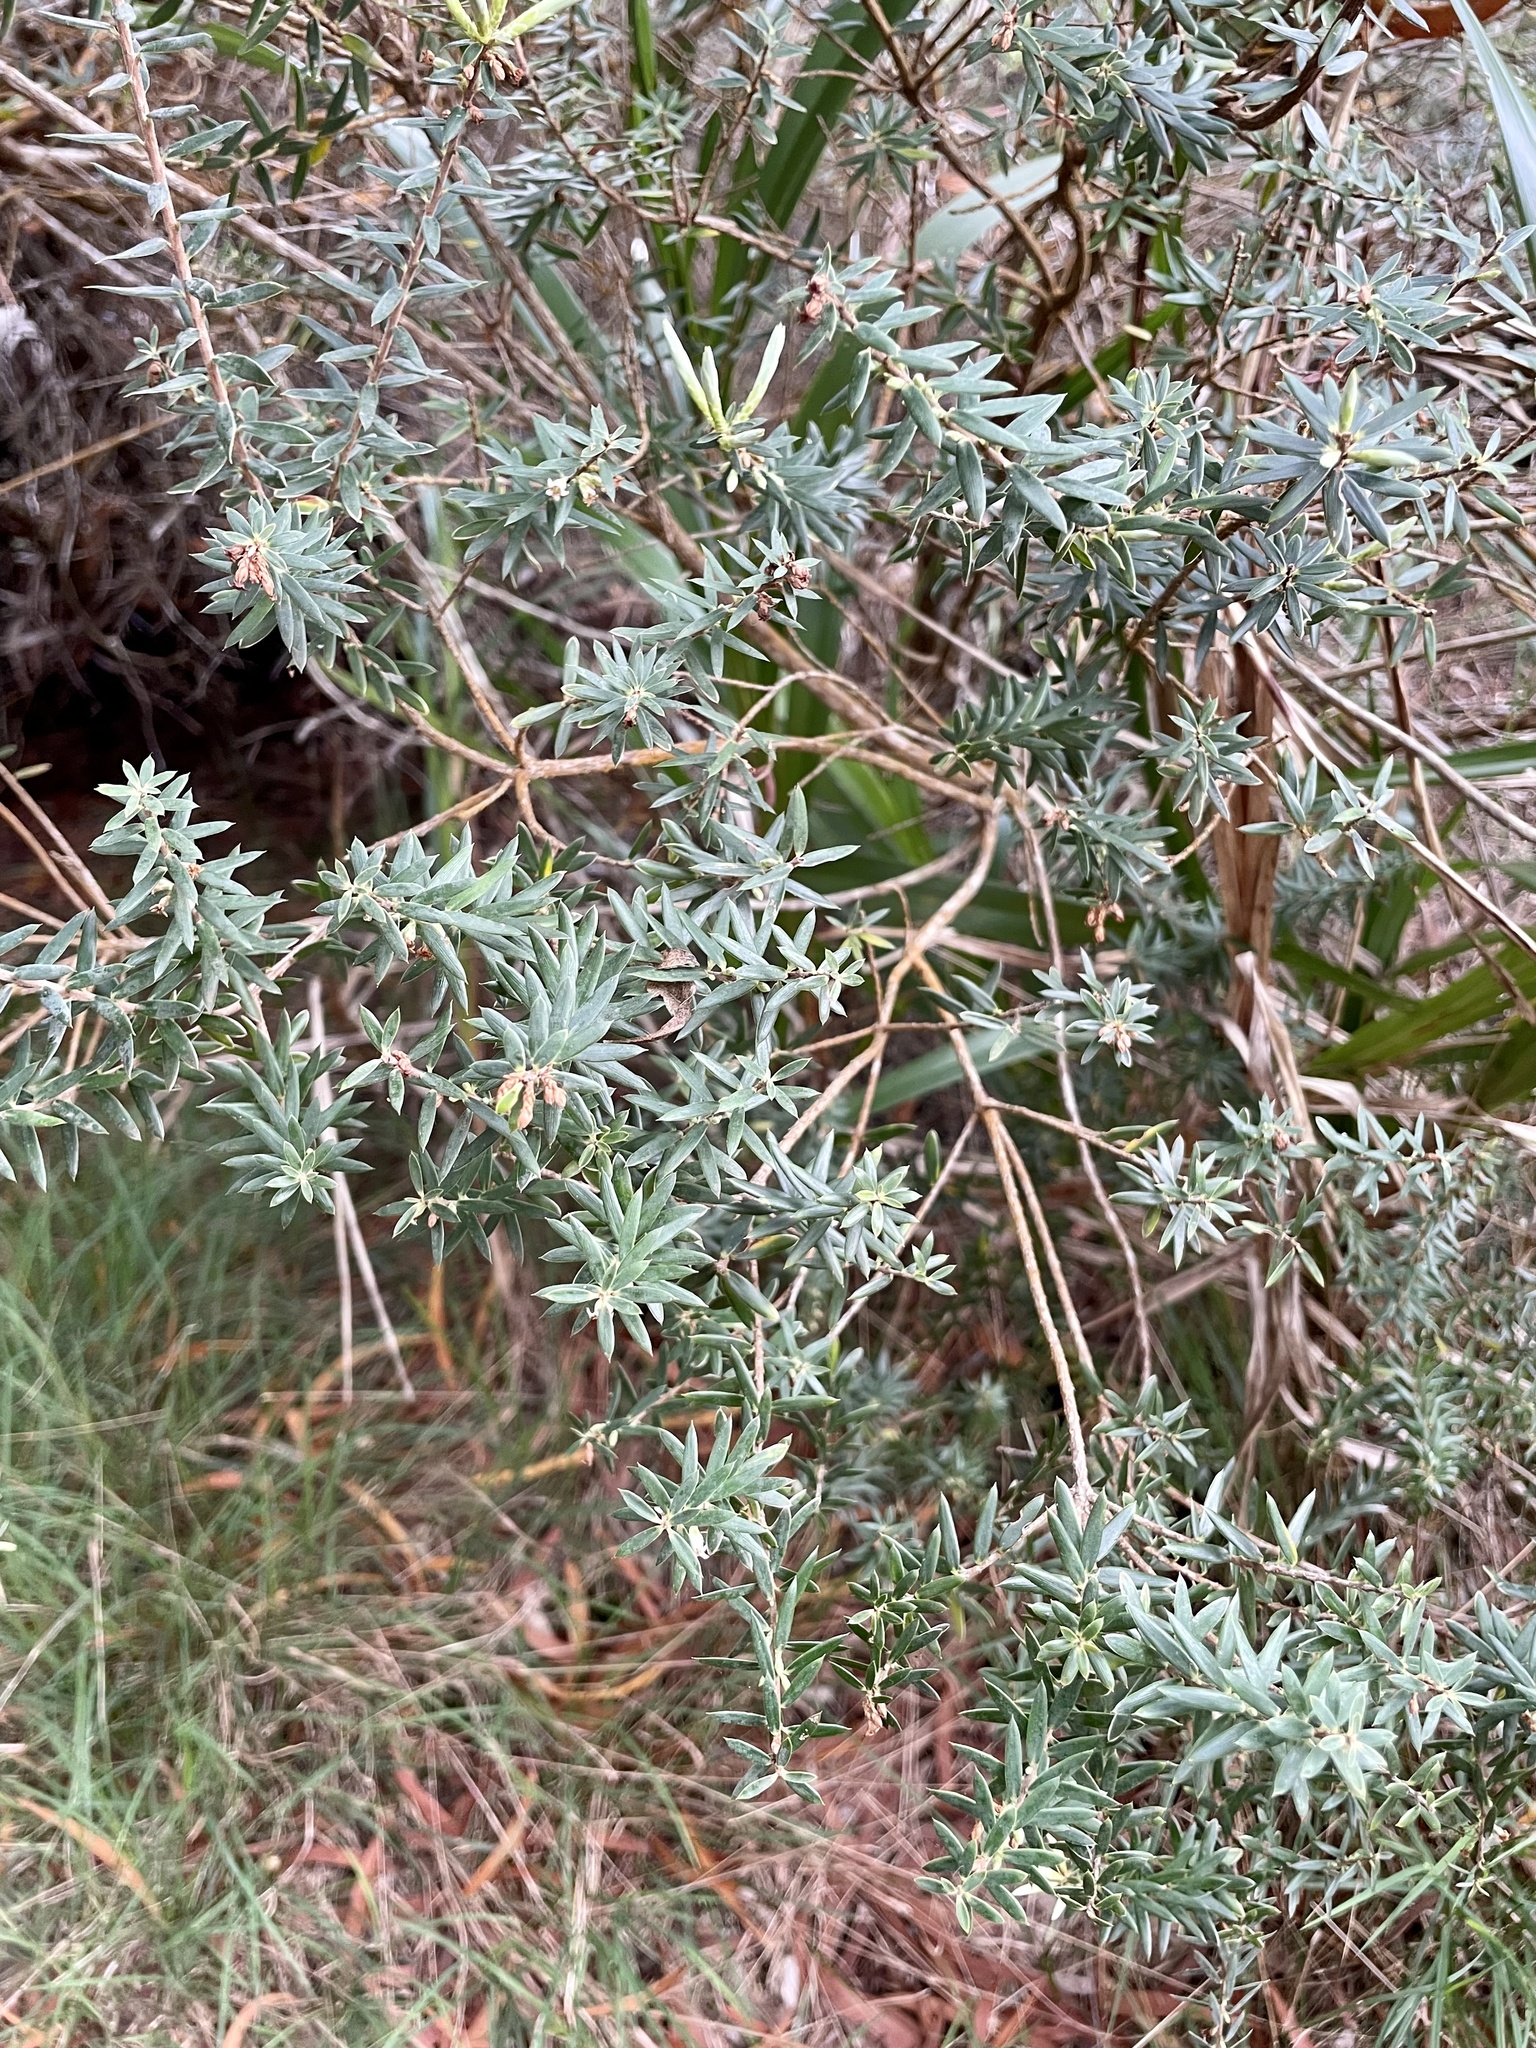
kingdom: Plantae
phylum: Tracheophyta
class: Magnoliopsida
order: Ericales
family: Ericaceae
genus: Leptecophylla
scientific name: Leptecophylla tameiameiae
